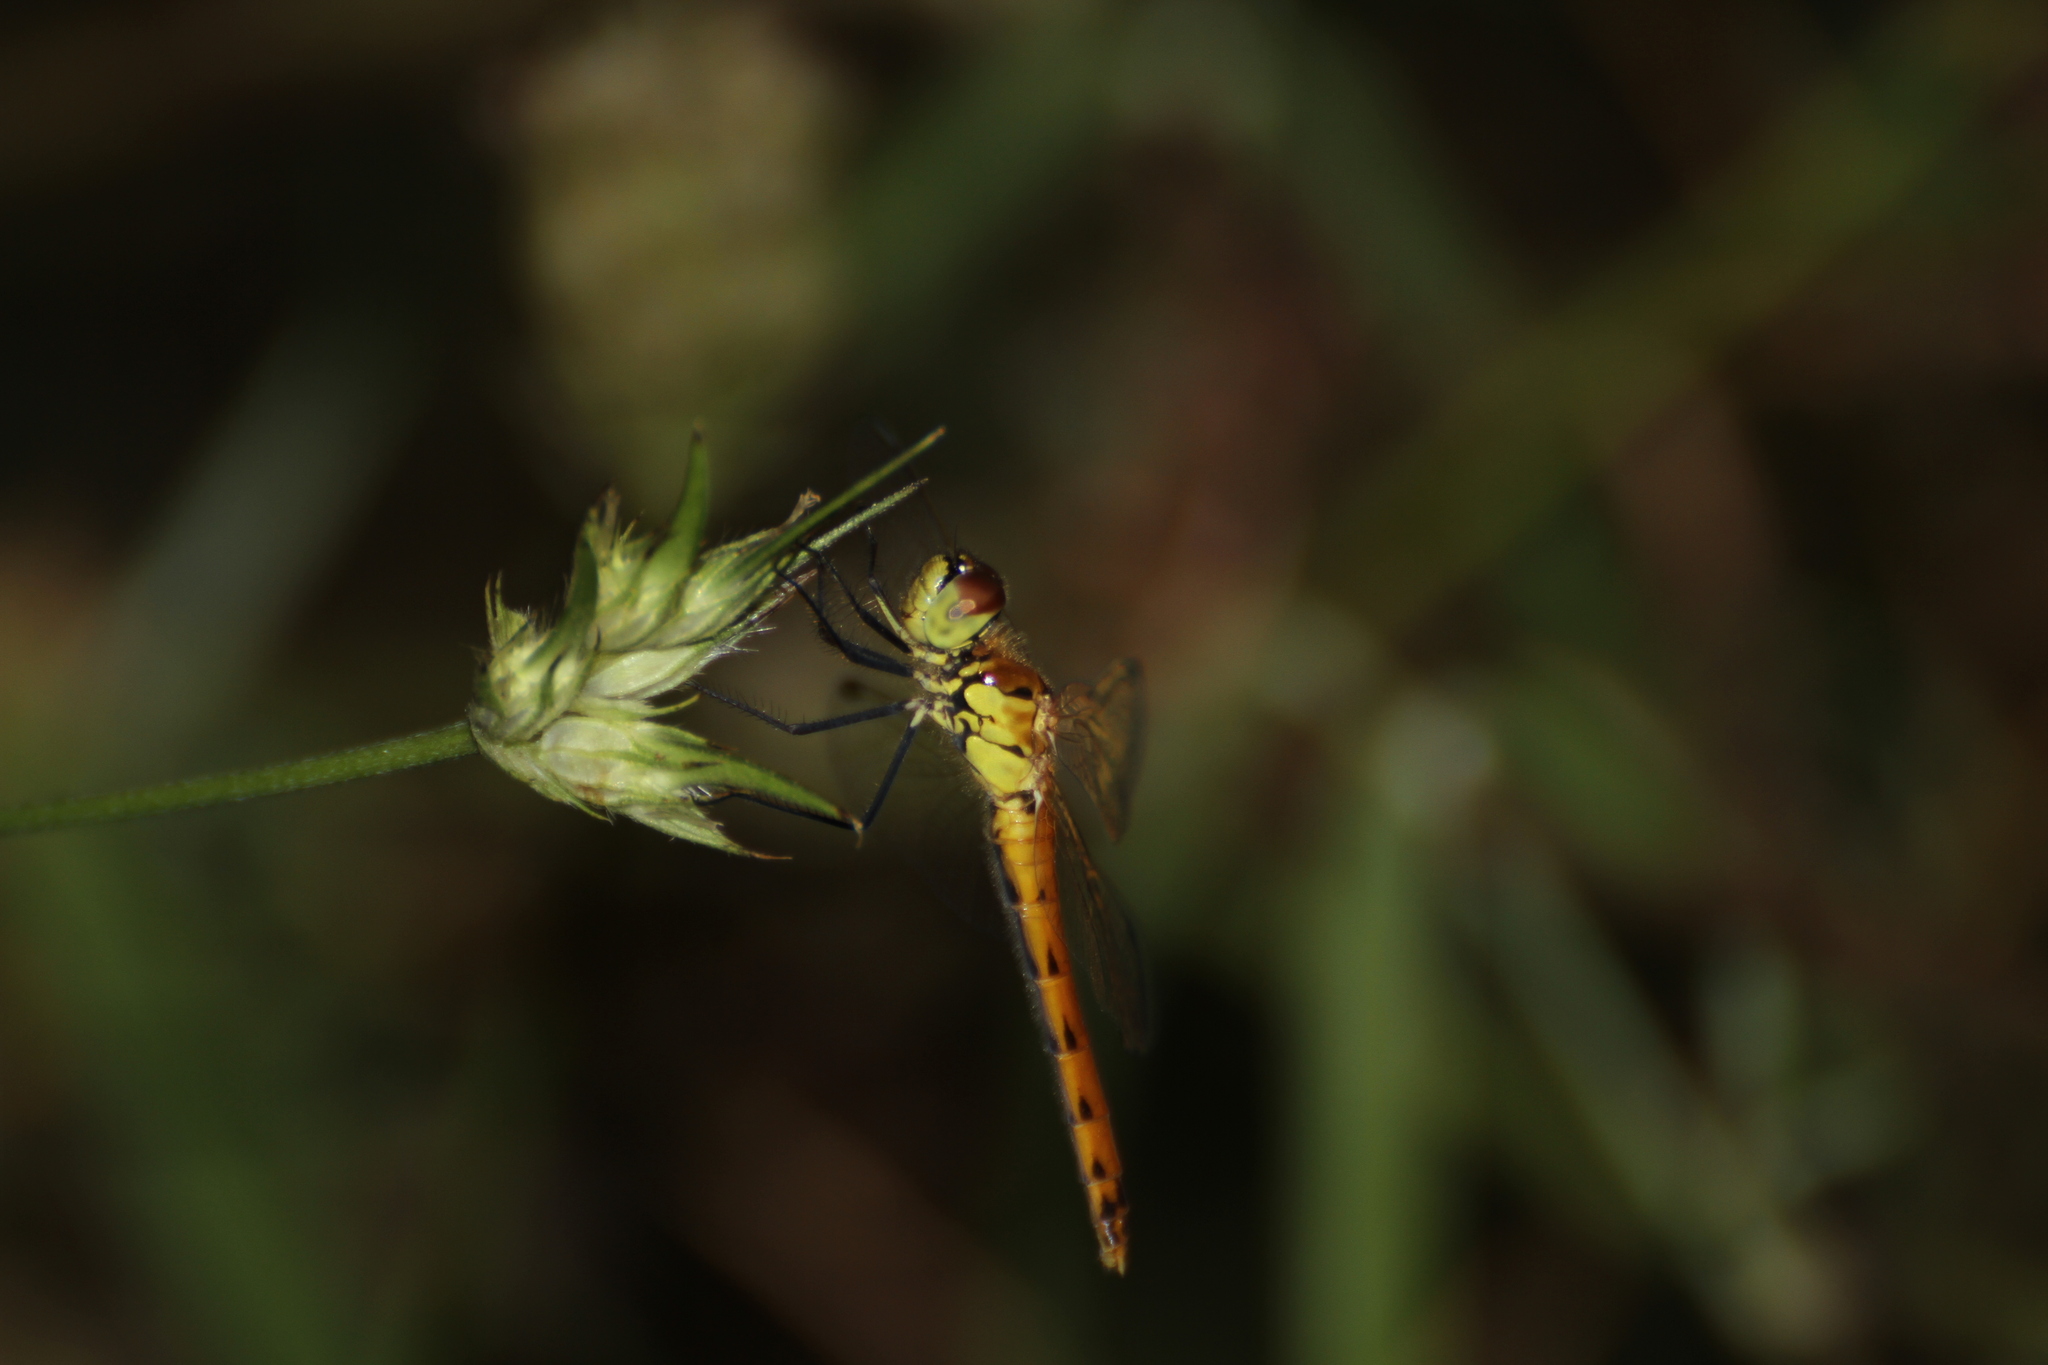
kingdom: Animalia
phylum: Arthropoda
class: Insecta
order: Odonata
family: Libellulidae
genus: Sympetrum
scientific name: Sympetrum depressiusculum
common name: Spotted darter
